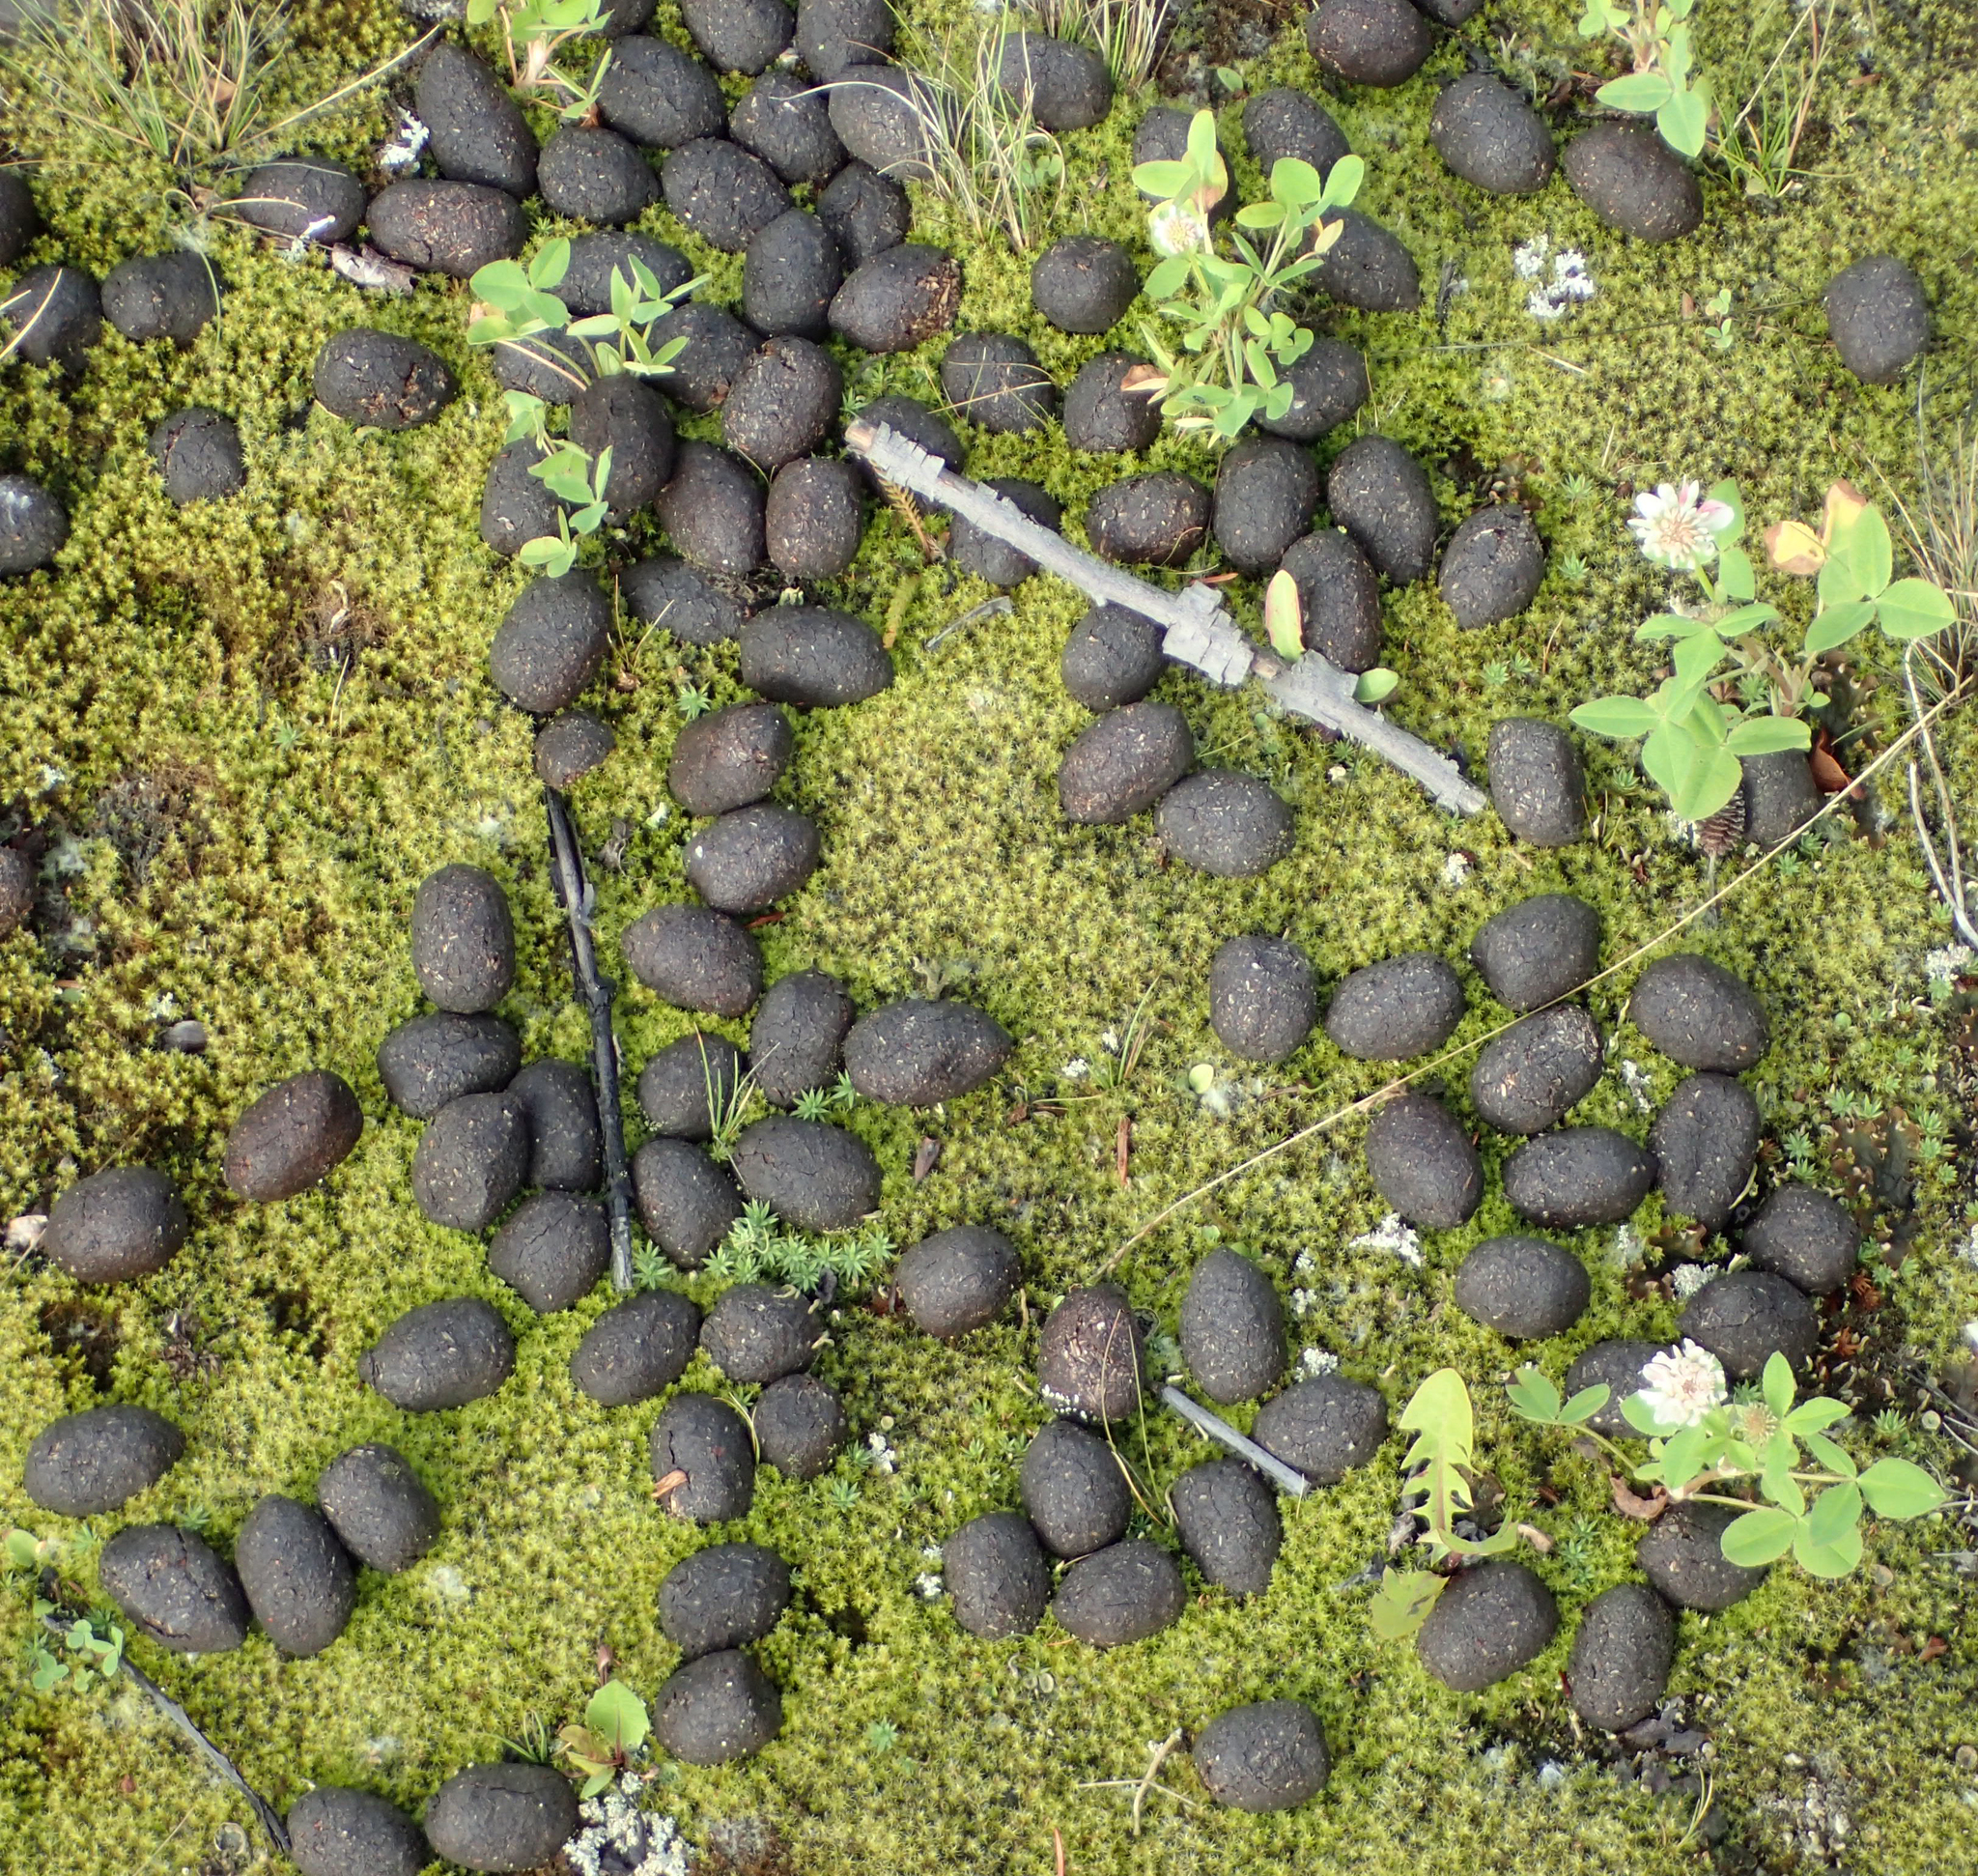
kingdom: Animalia
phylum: Chordata
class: Mammalia
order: Artiodactyla
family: Cervidae
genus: Alces
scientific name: Alces alces
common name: Moose
